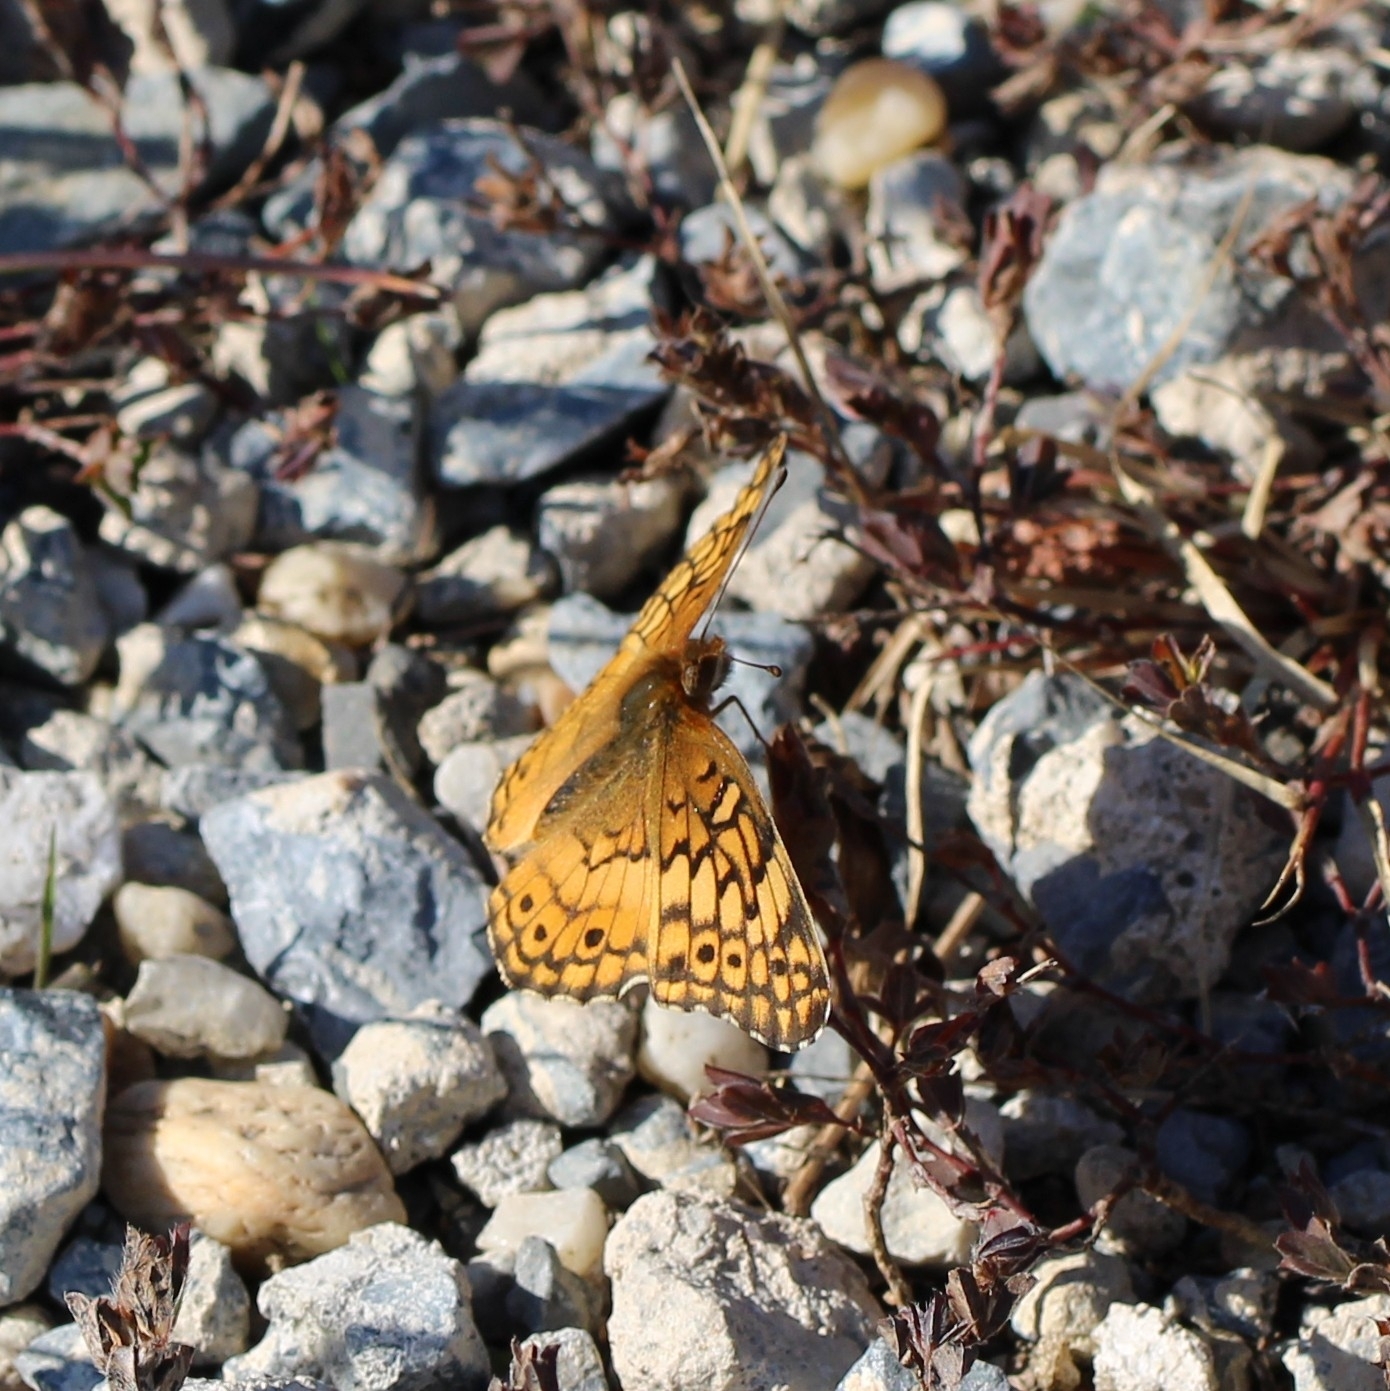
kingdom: Animalia
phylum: Arthropoda
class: Insecta
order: Lepidoptera
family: Nymphalidae
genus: Euptoieta
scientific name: Euptoieta claudia
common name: Variegated fritillary
